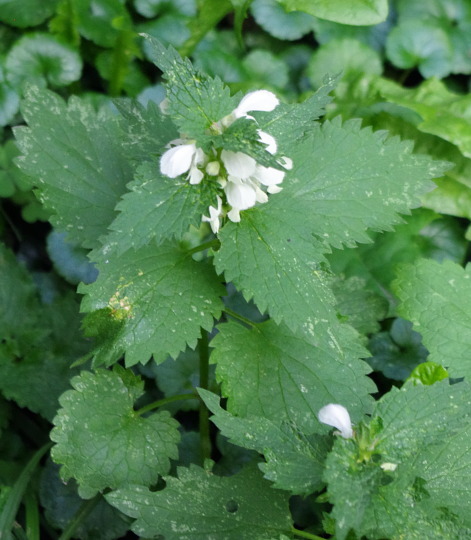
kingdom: Plantae
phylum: Tracheophyta
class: Magnoliopsida
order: Lamiales
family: Lamiaceae
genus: Lamium
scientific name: Lamium album
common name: White dead-nettle
